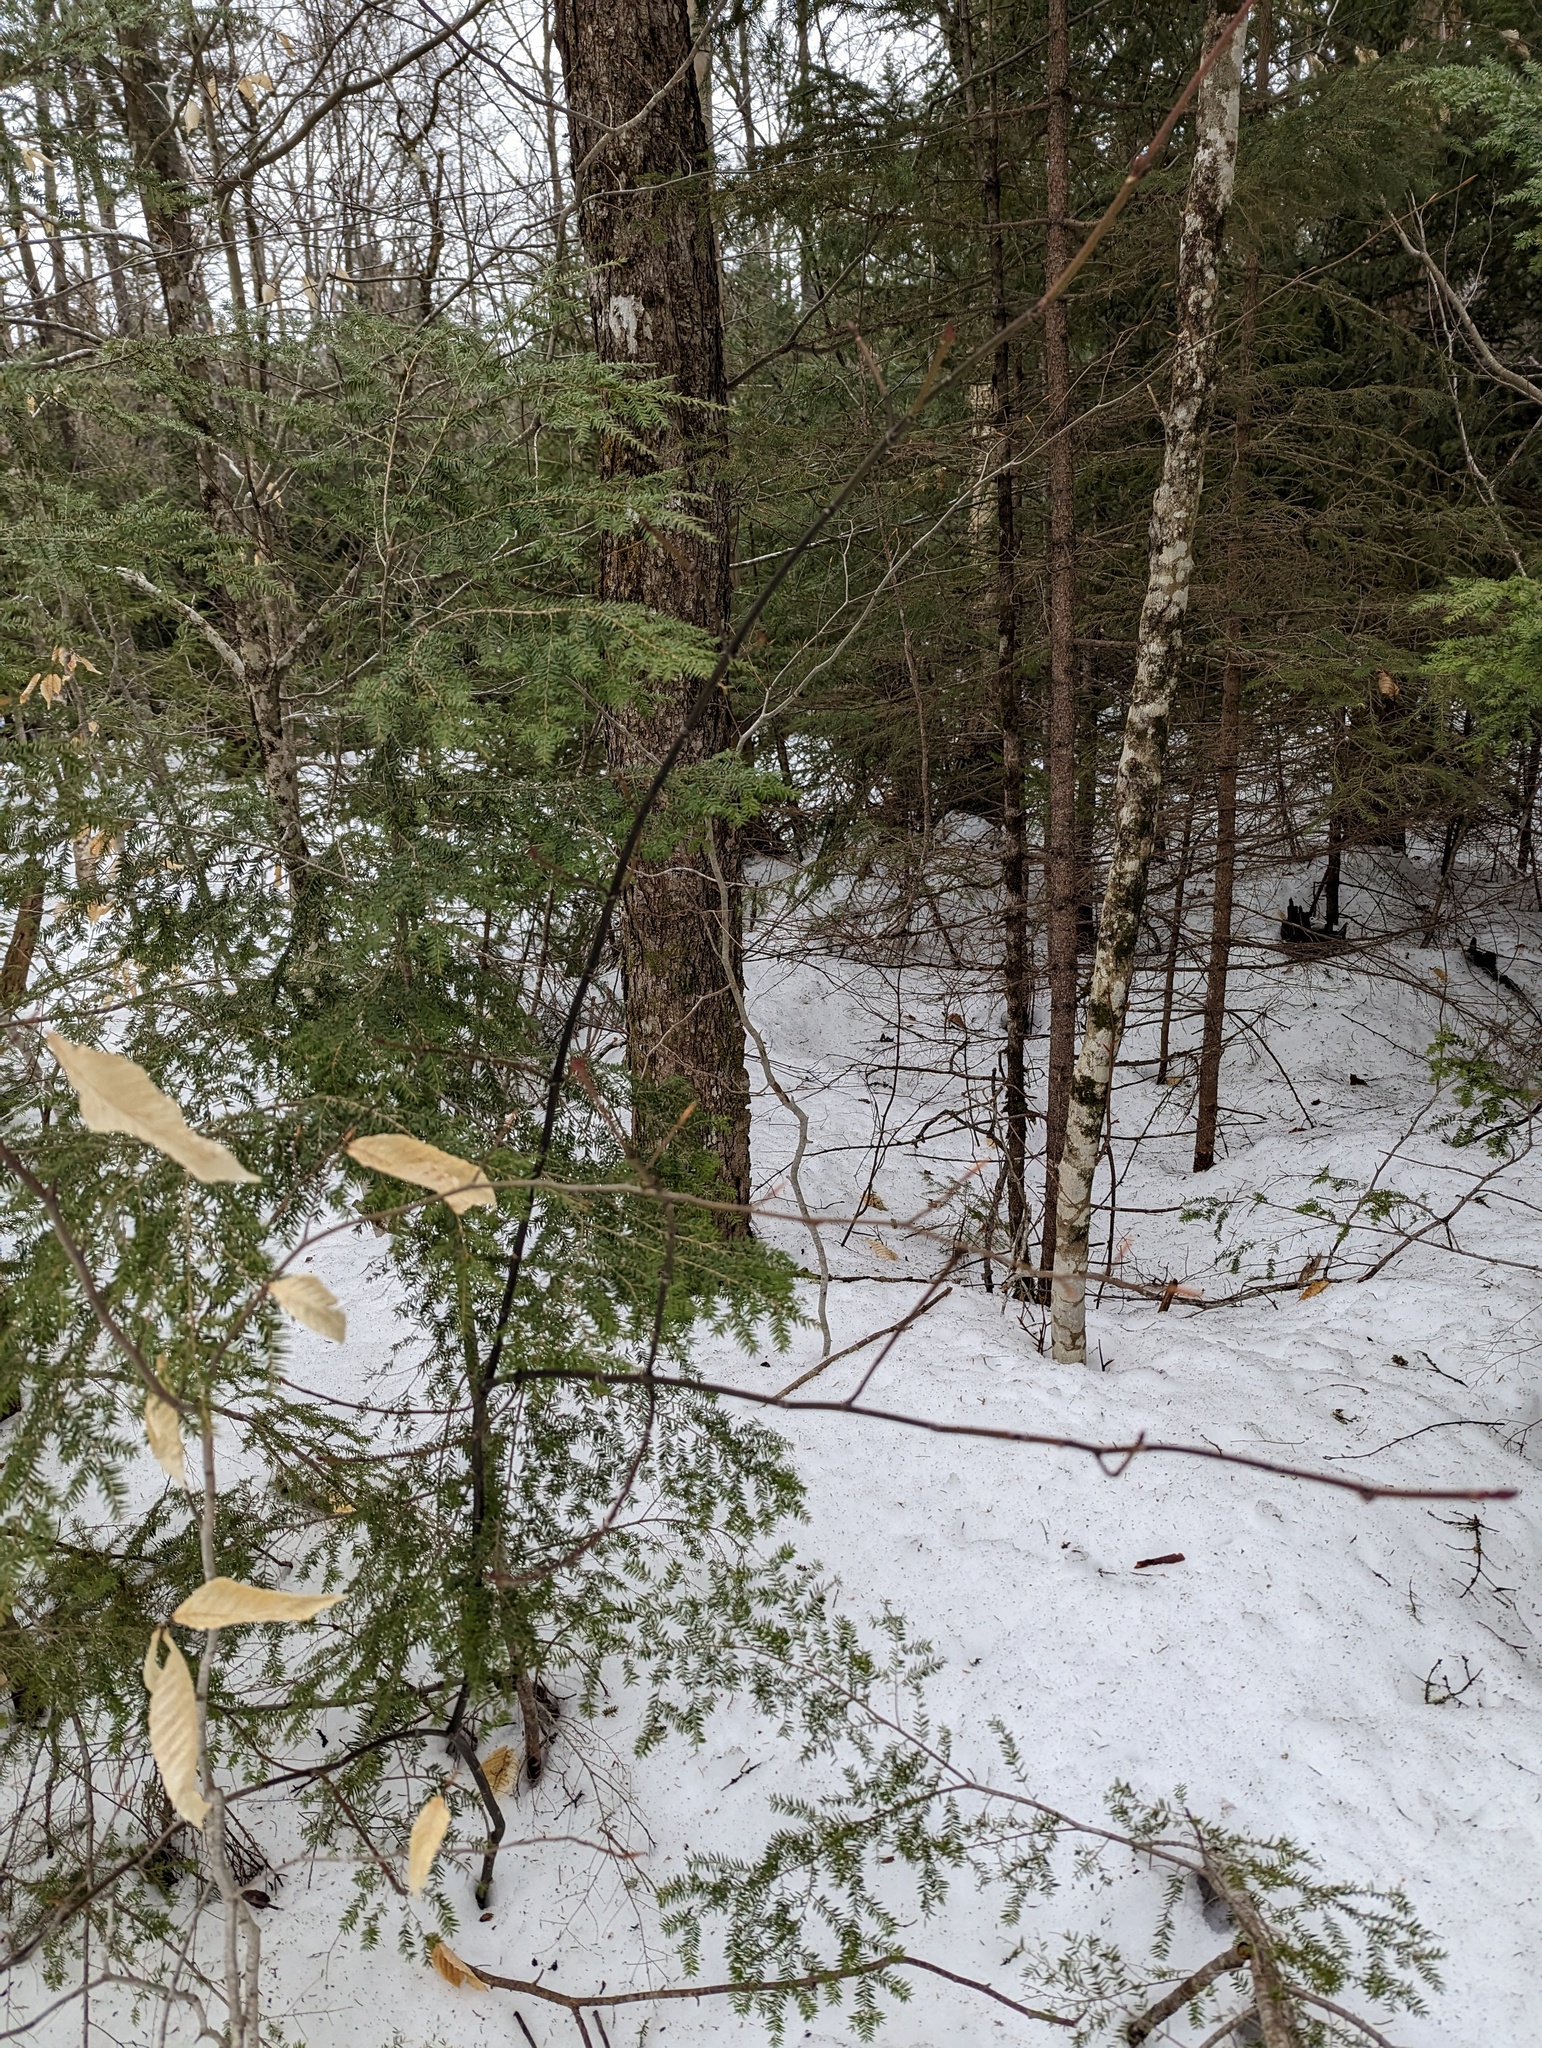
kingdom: Plantae
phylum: Tracheophyta
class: Magnoliopsida
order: Sapindales
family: Sapindaceae
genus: Acer
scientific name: Acer pensylvanicum
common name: Moosewood
